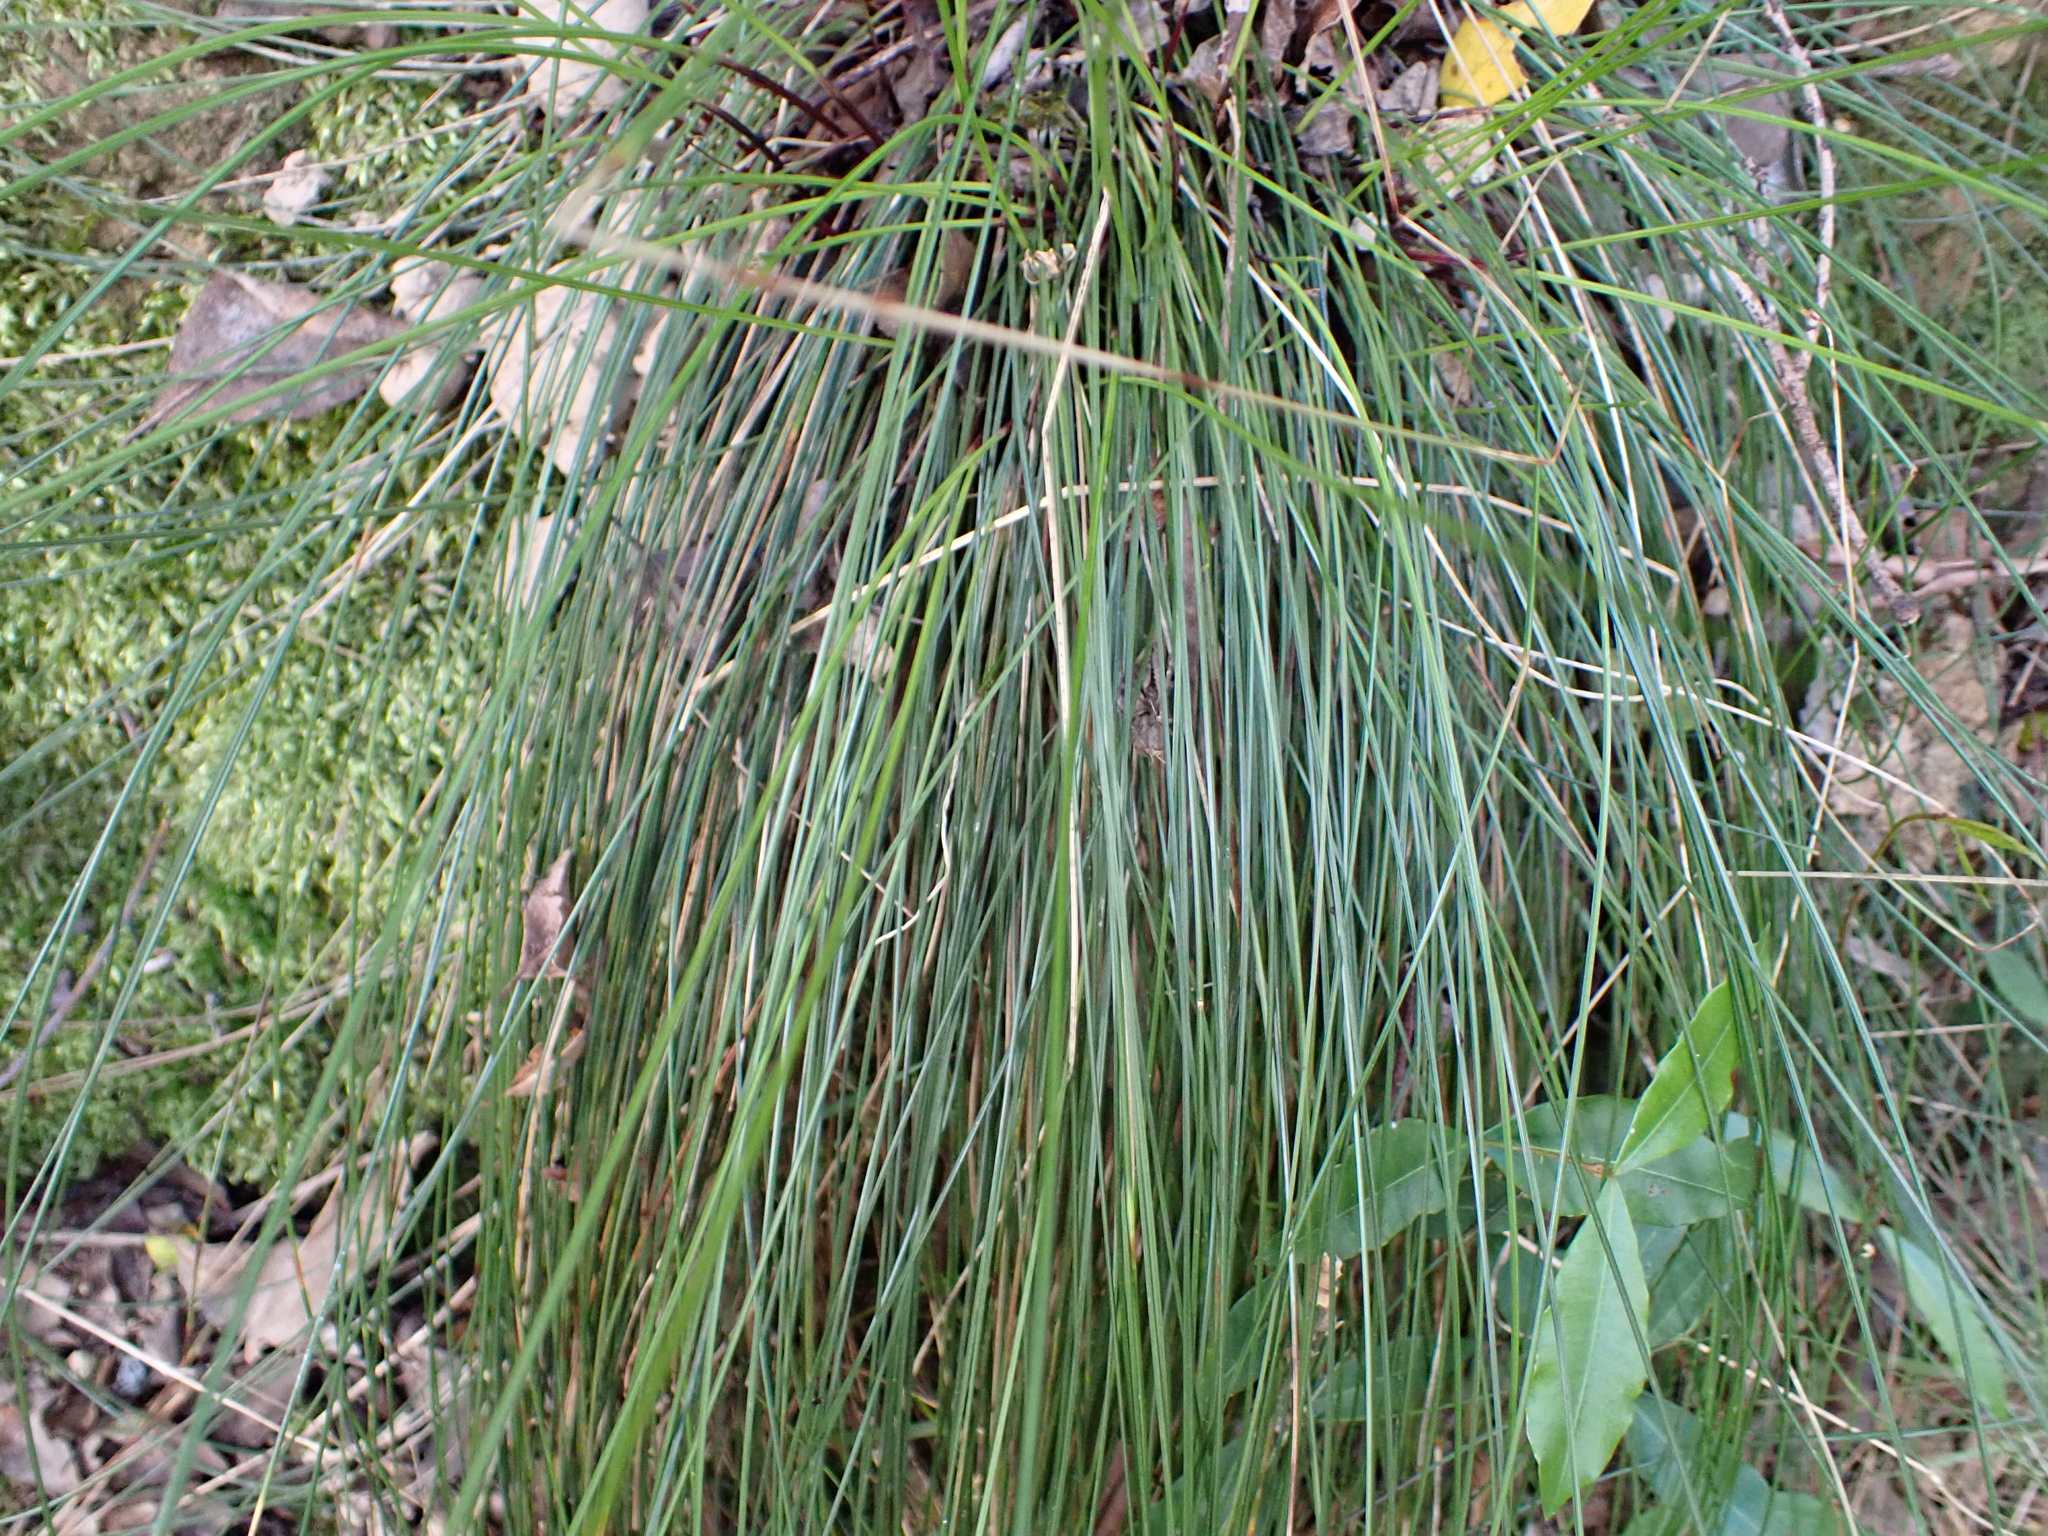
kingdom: Plantae
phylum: Tracheophyta
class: Liliopsida
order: Poales
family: Juncaceae
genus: Juncus
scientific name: Juncus effusus
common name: Soft rush
